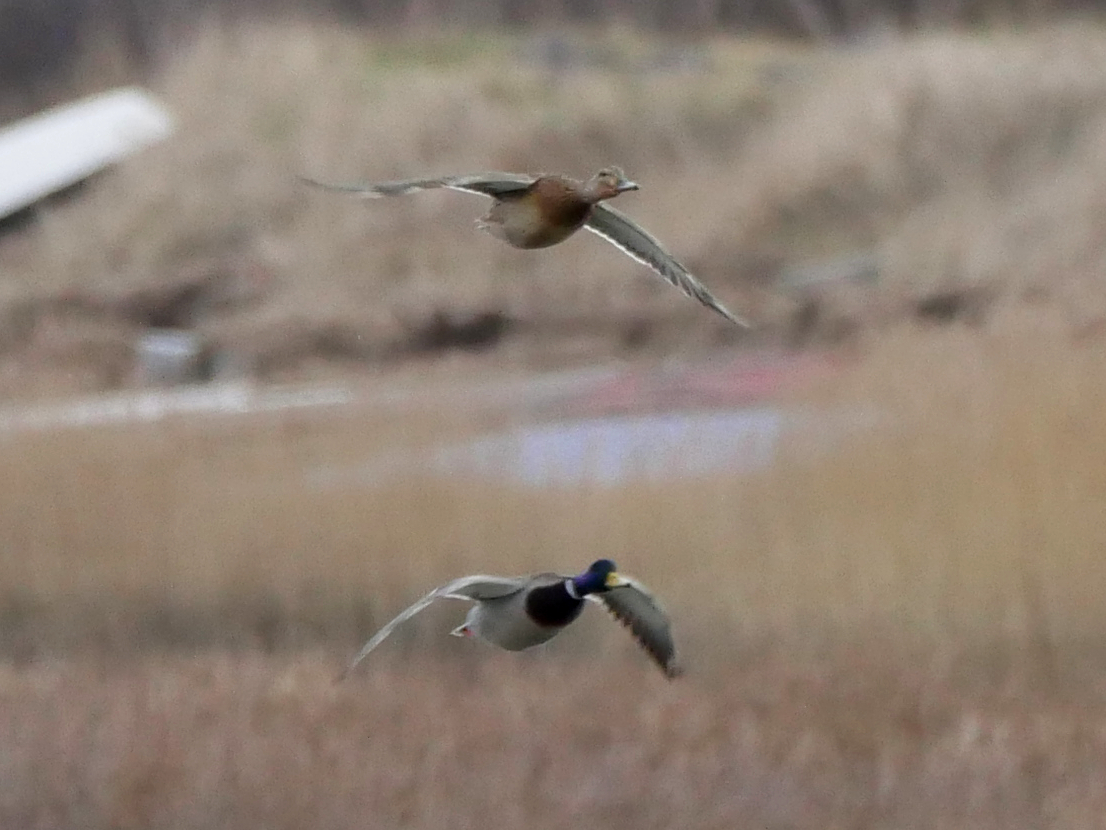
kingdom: Animalia
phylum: Chordata
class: Aves
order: Anseriformes
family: Anatidae
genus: Anas
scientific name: Anas platyrhynchos
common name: Mallard
